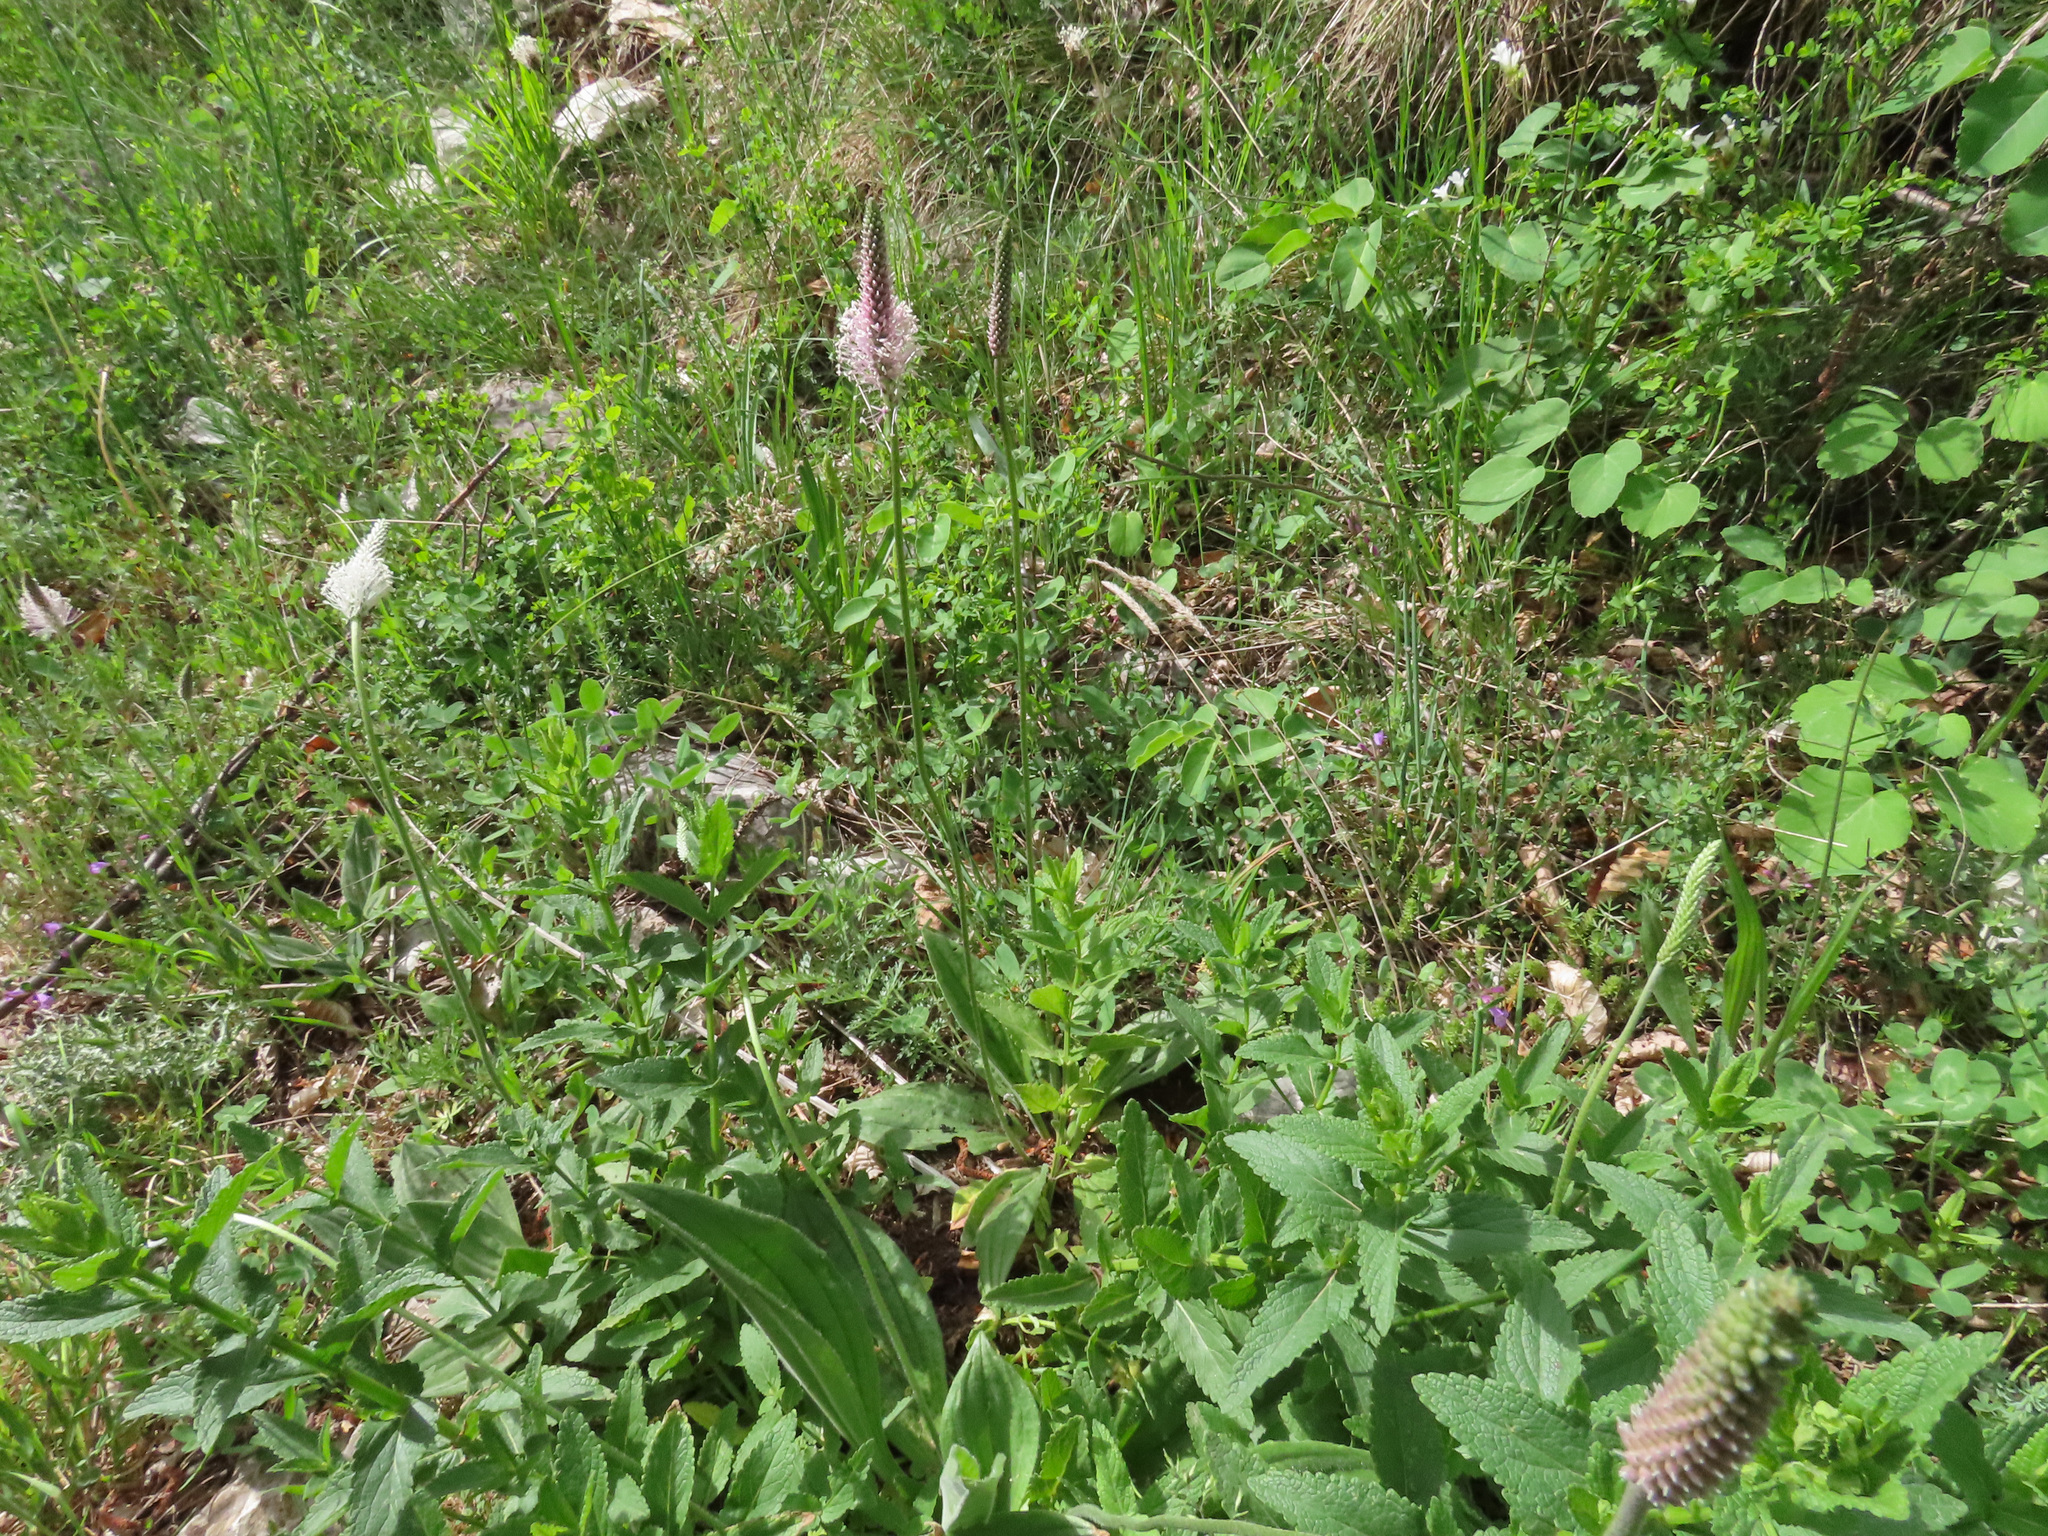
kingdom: Plantae
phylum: Tracheophyta
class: Magnoliopsida
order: Lamiales
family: Plantaginaceae
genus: Plantago
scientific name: Plantago media
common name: Hoary plantain
